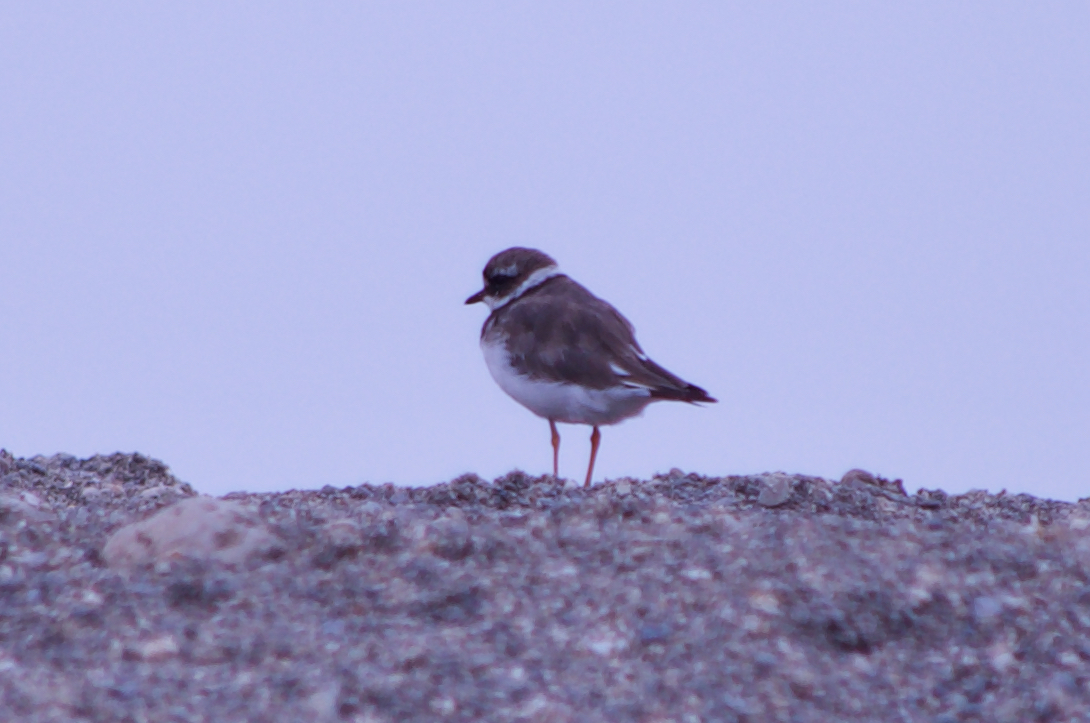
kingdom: Animalia
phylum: Chordata
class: Aves
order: Charadriiformes
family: Charadriidae
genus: Charadrius
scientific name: Charadrius hiaticula
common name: Common ringed plover
